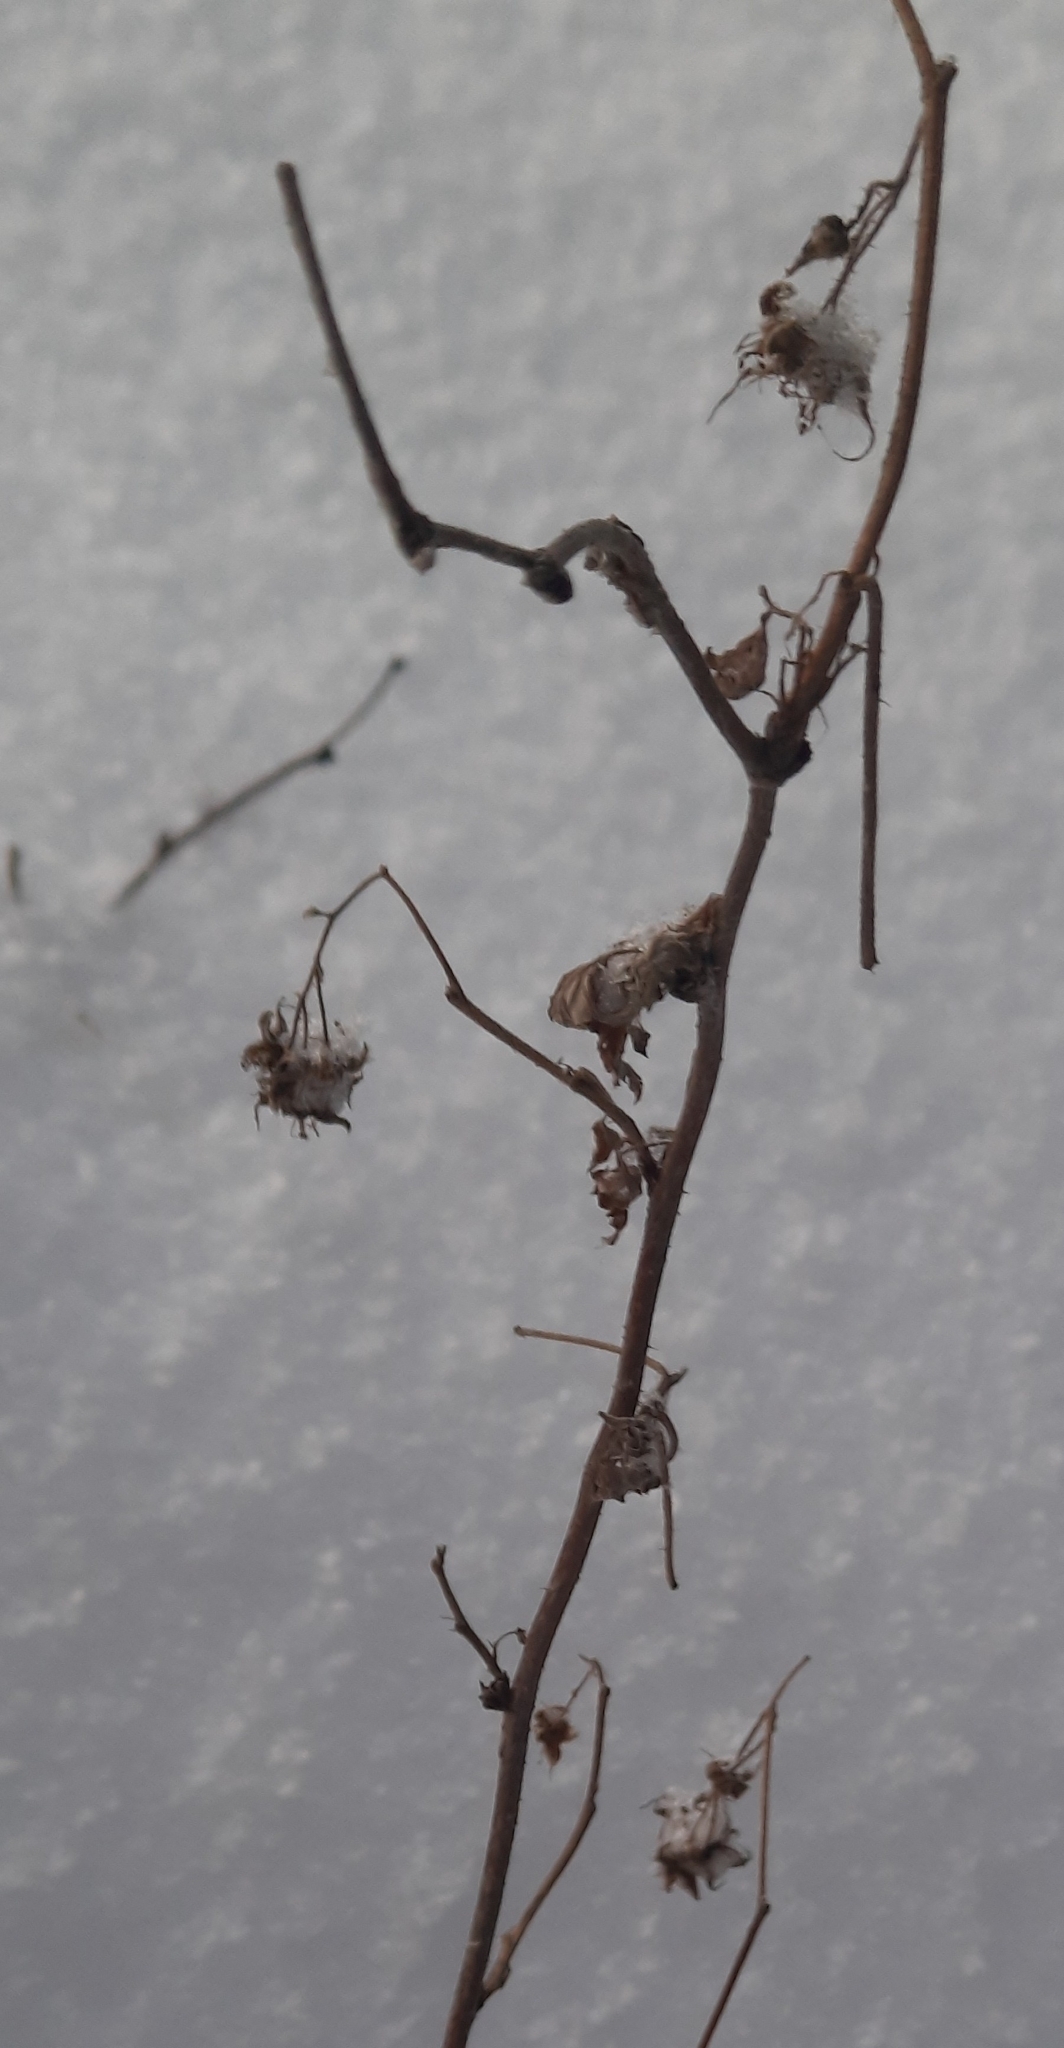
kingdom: Plantae
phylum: Tracheophyta
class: Magnoliopsida
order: Rosales
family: Rosaceae
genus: Rubus
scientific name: Rubus idaeus
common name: Raspberry
